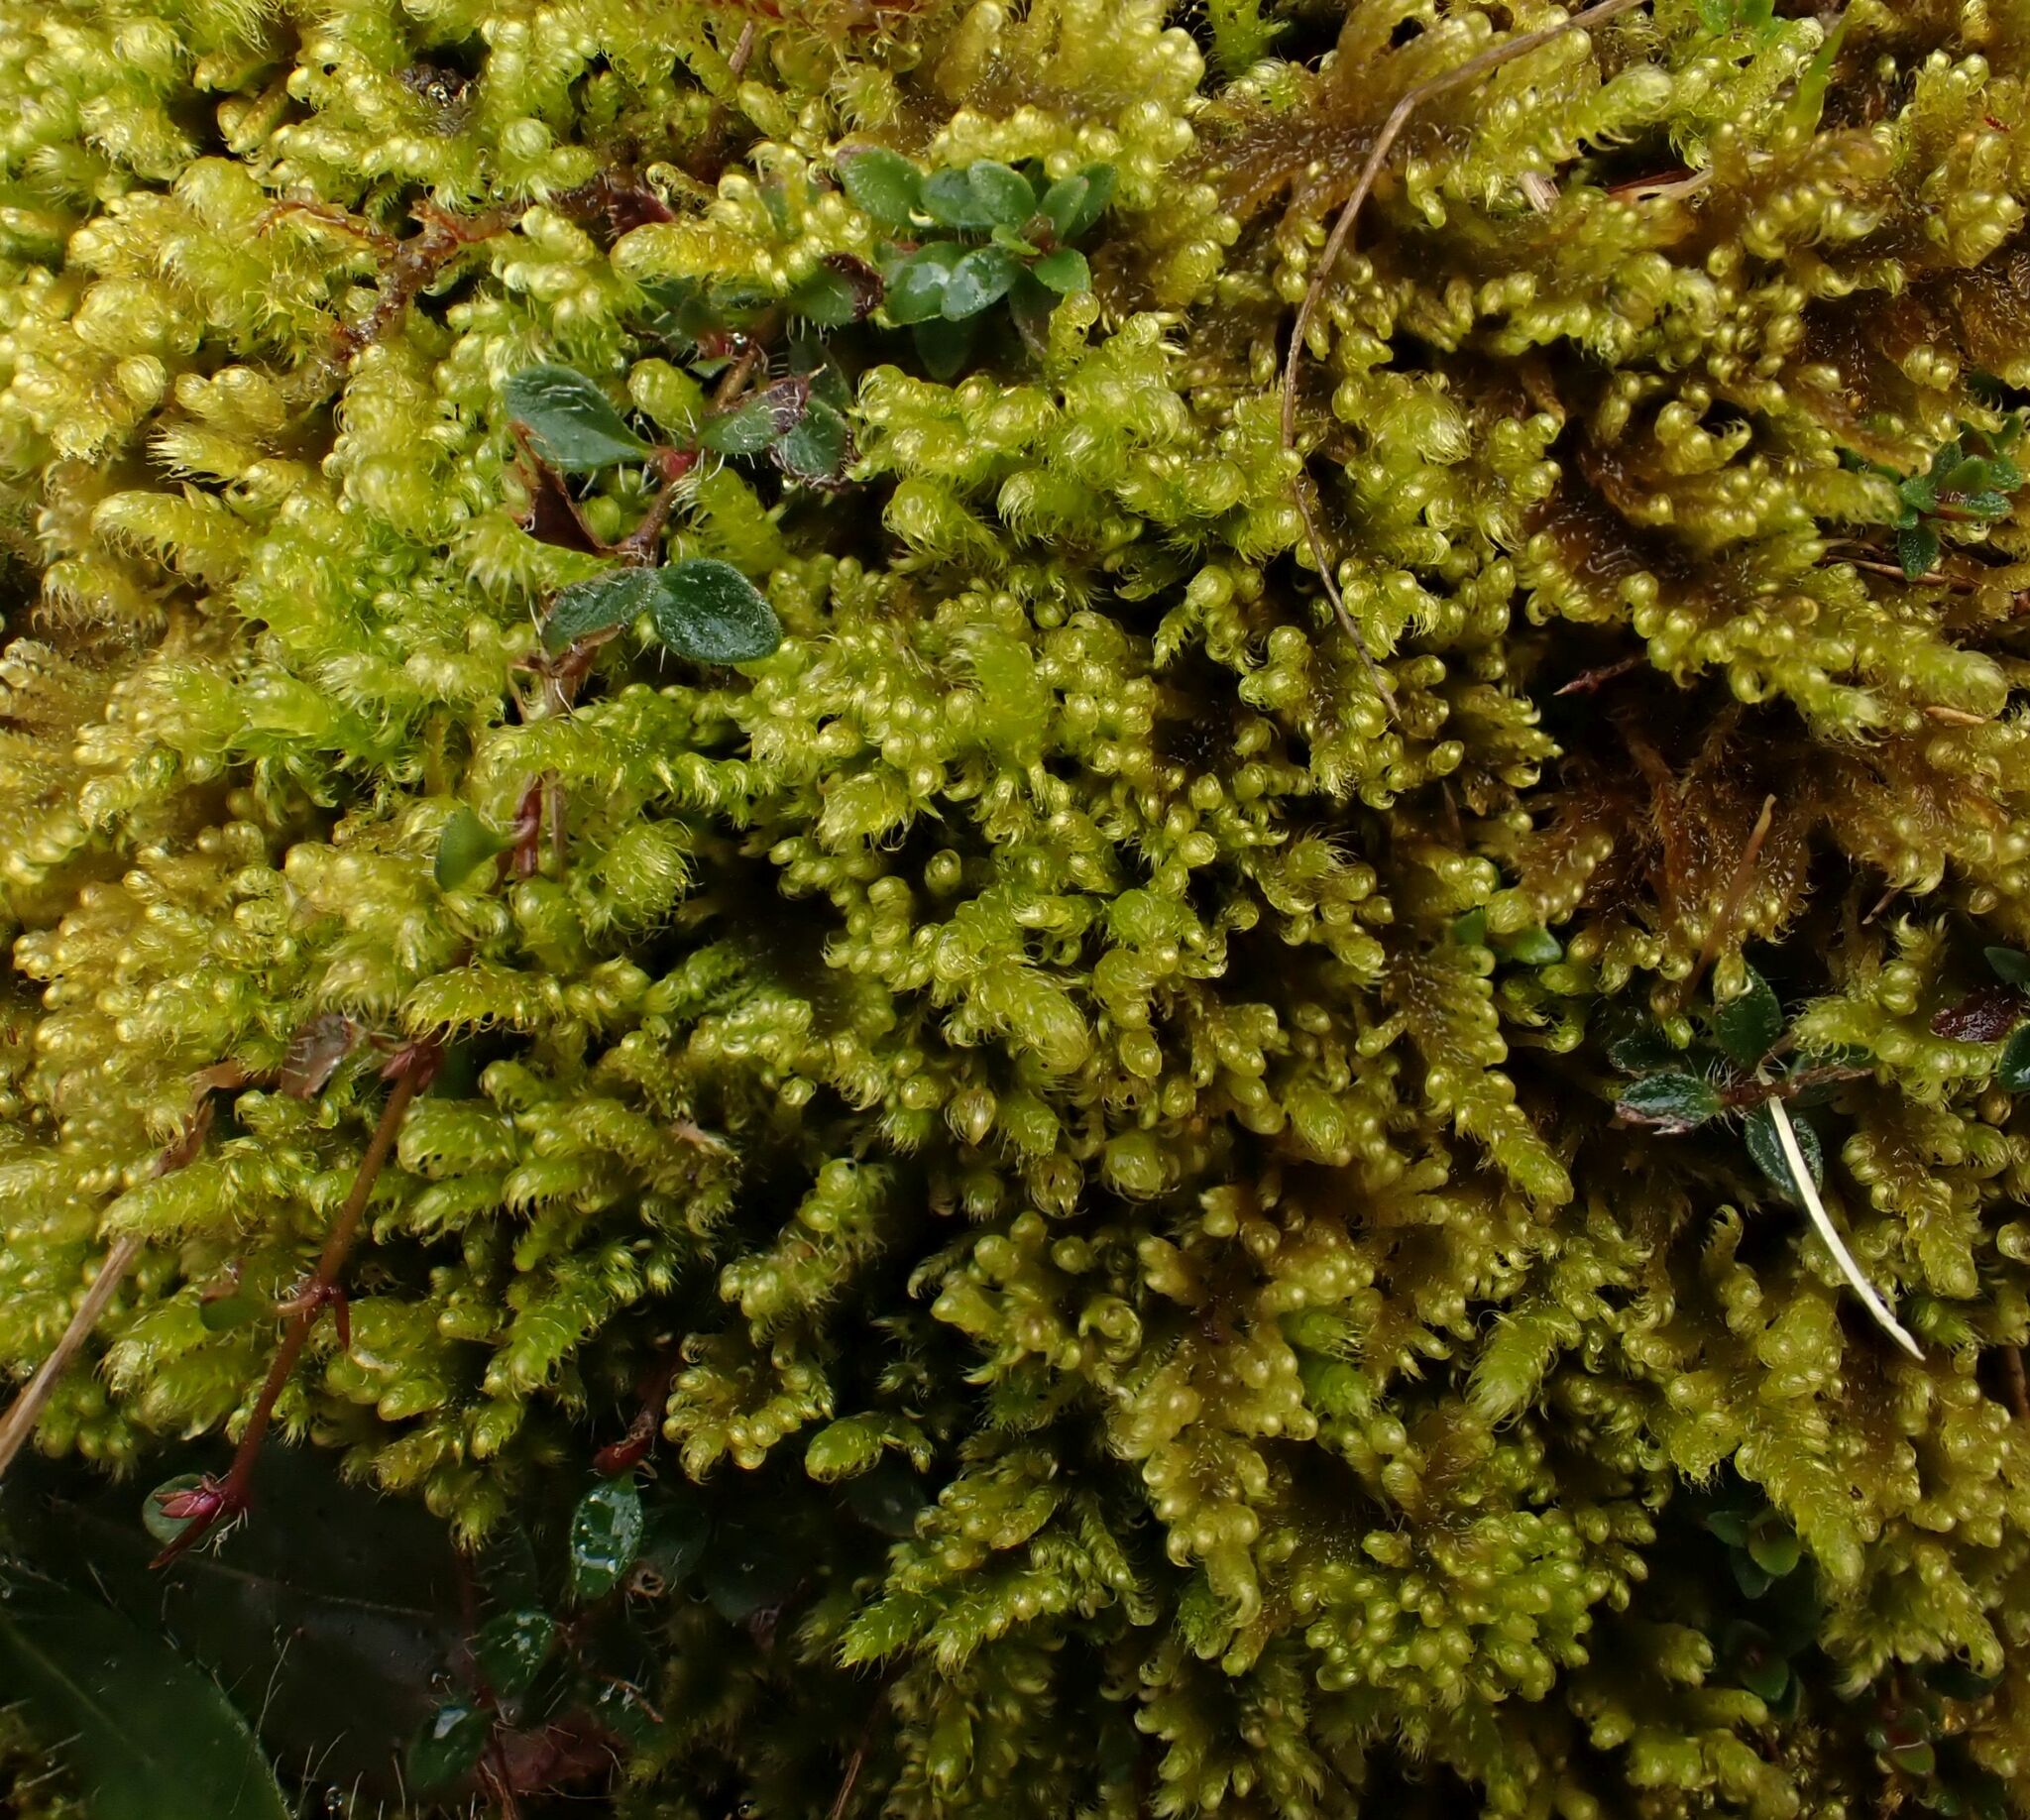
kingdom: Plantae
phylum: Bryophyta
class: Bryopsida
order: Hypnales
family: Myuriaceae
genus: Ctenidium
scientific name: Ctenidium molluscum
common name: Chalk comb-moss
